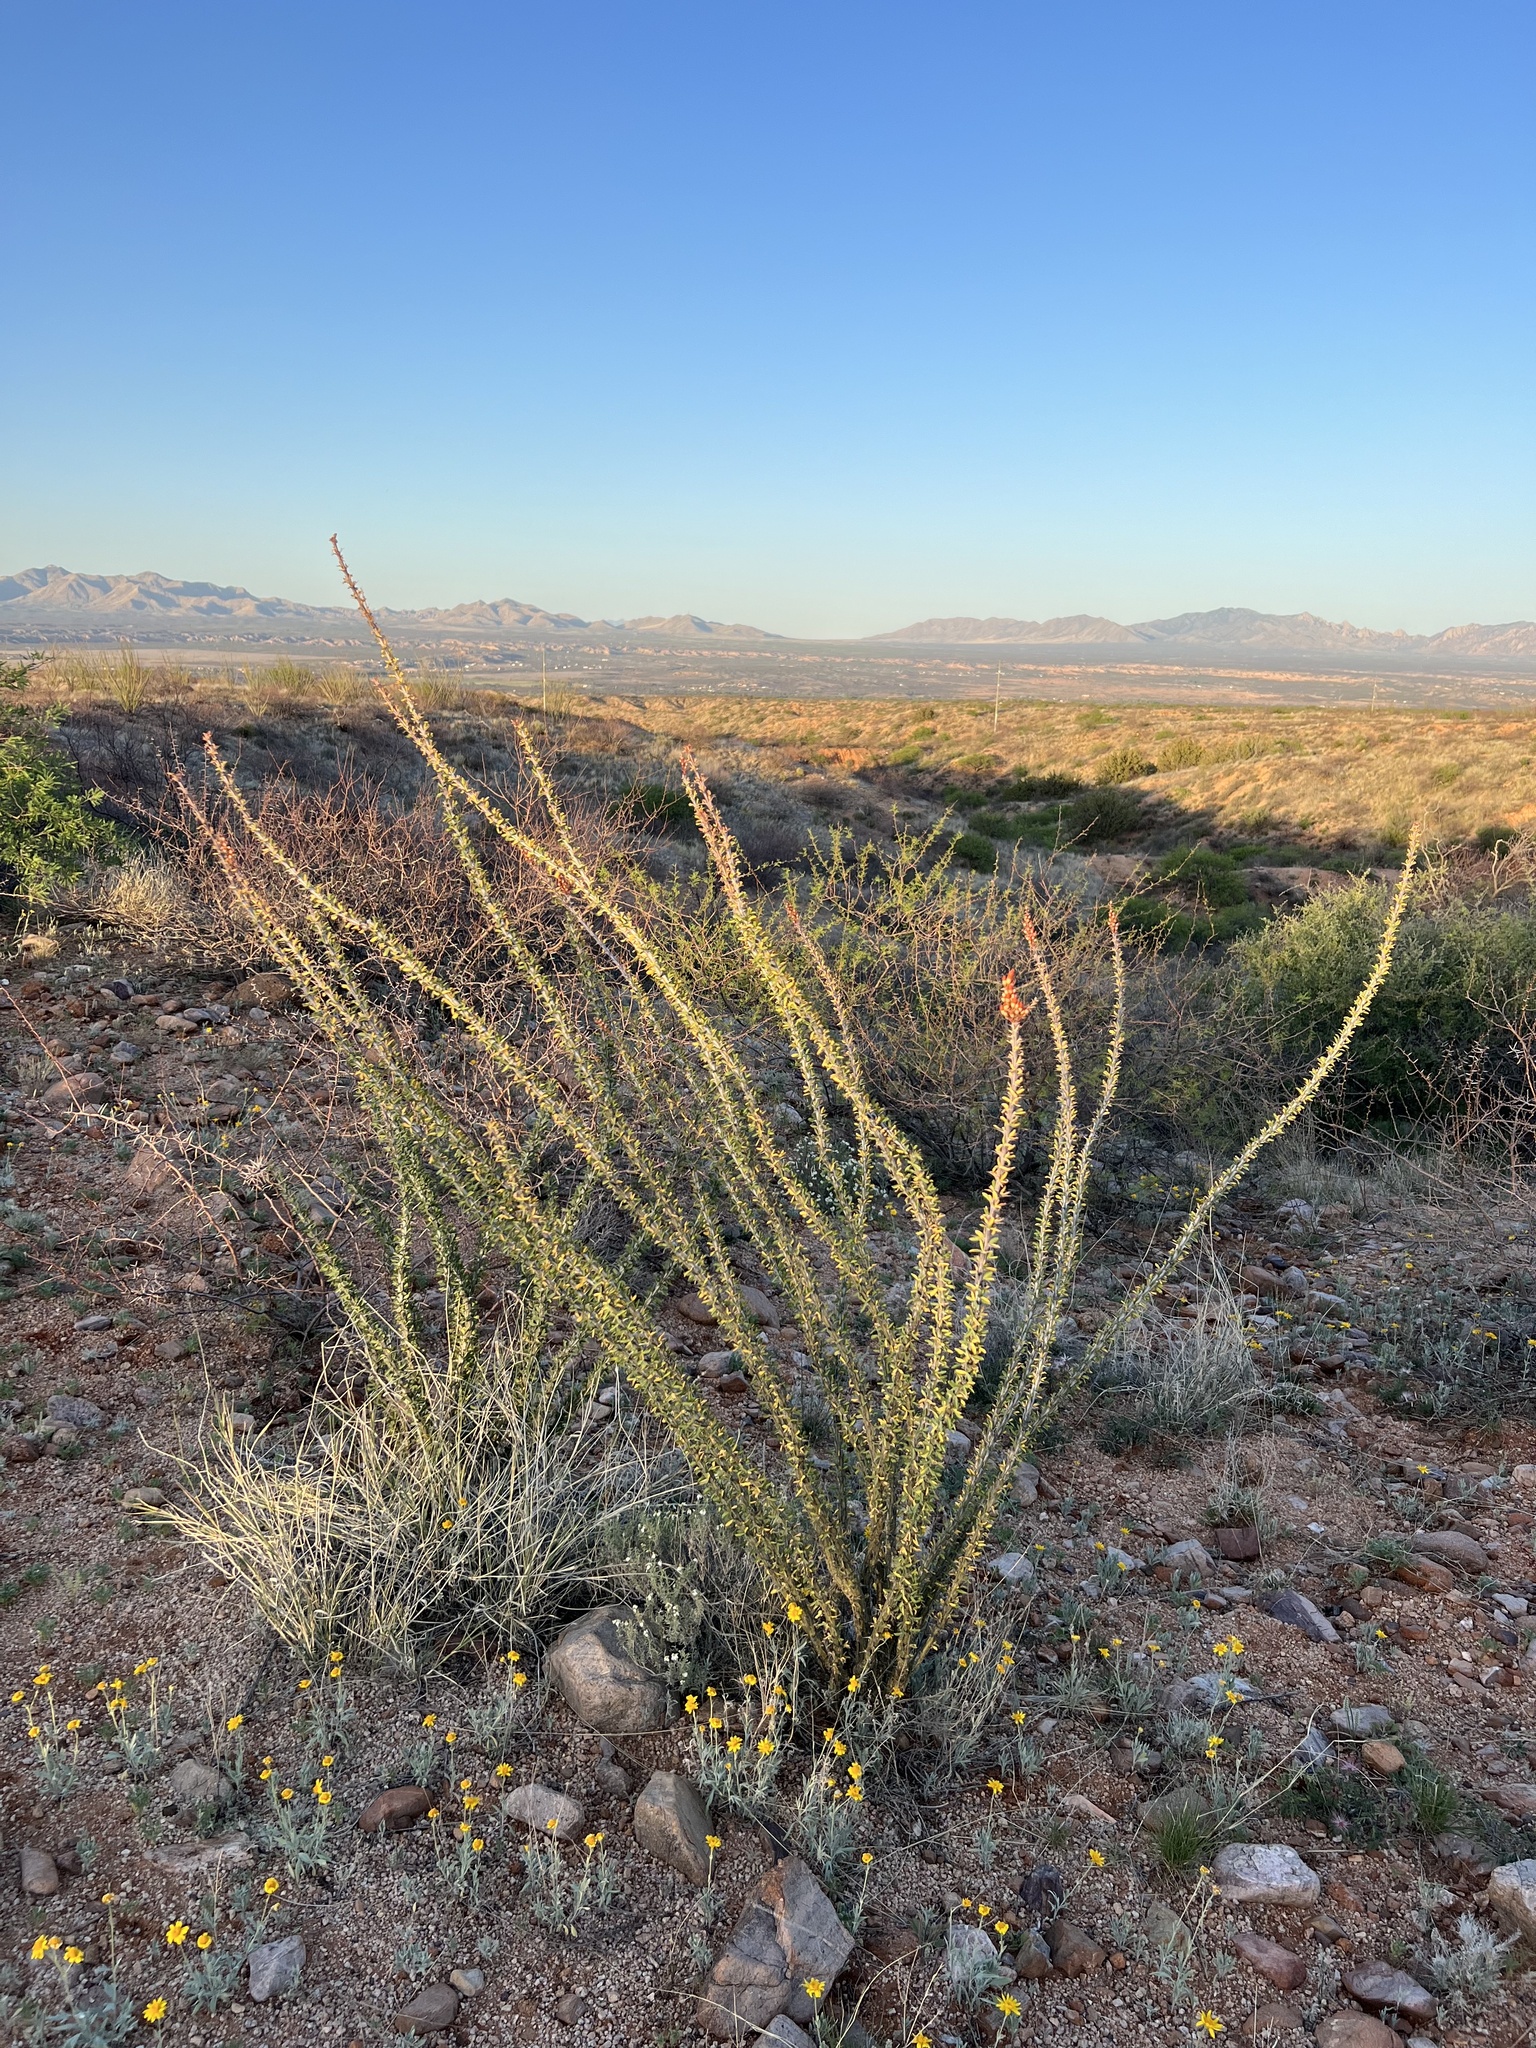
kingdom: Plantae
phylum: Tracheophyta
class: Magnoliopsida
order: Ericales
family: Fouquieriaceae
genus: Fouquieria
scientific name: Fouquieria splendens
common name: Vine-cactus
